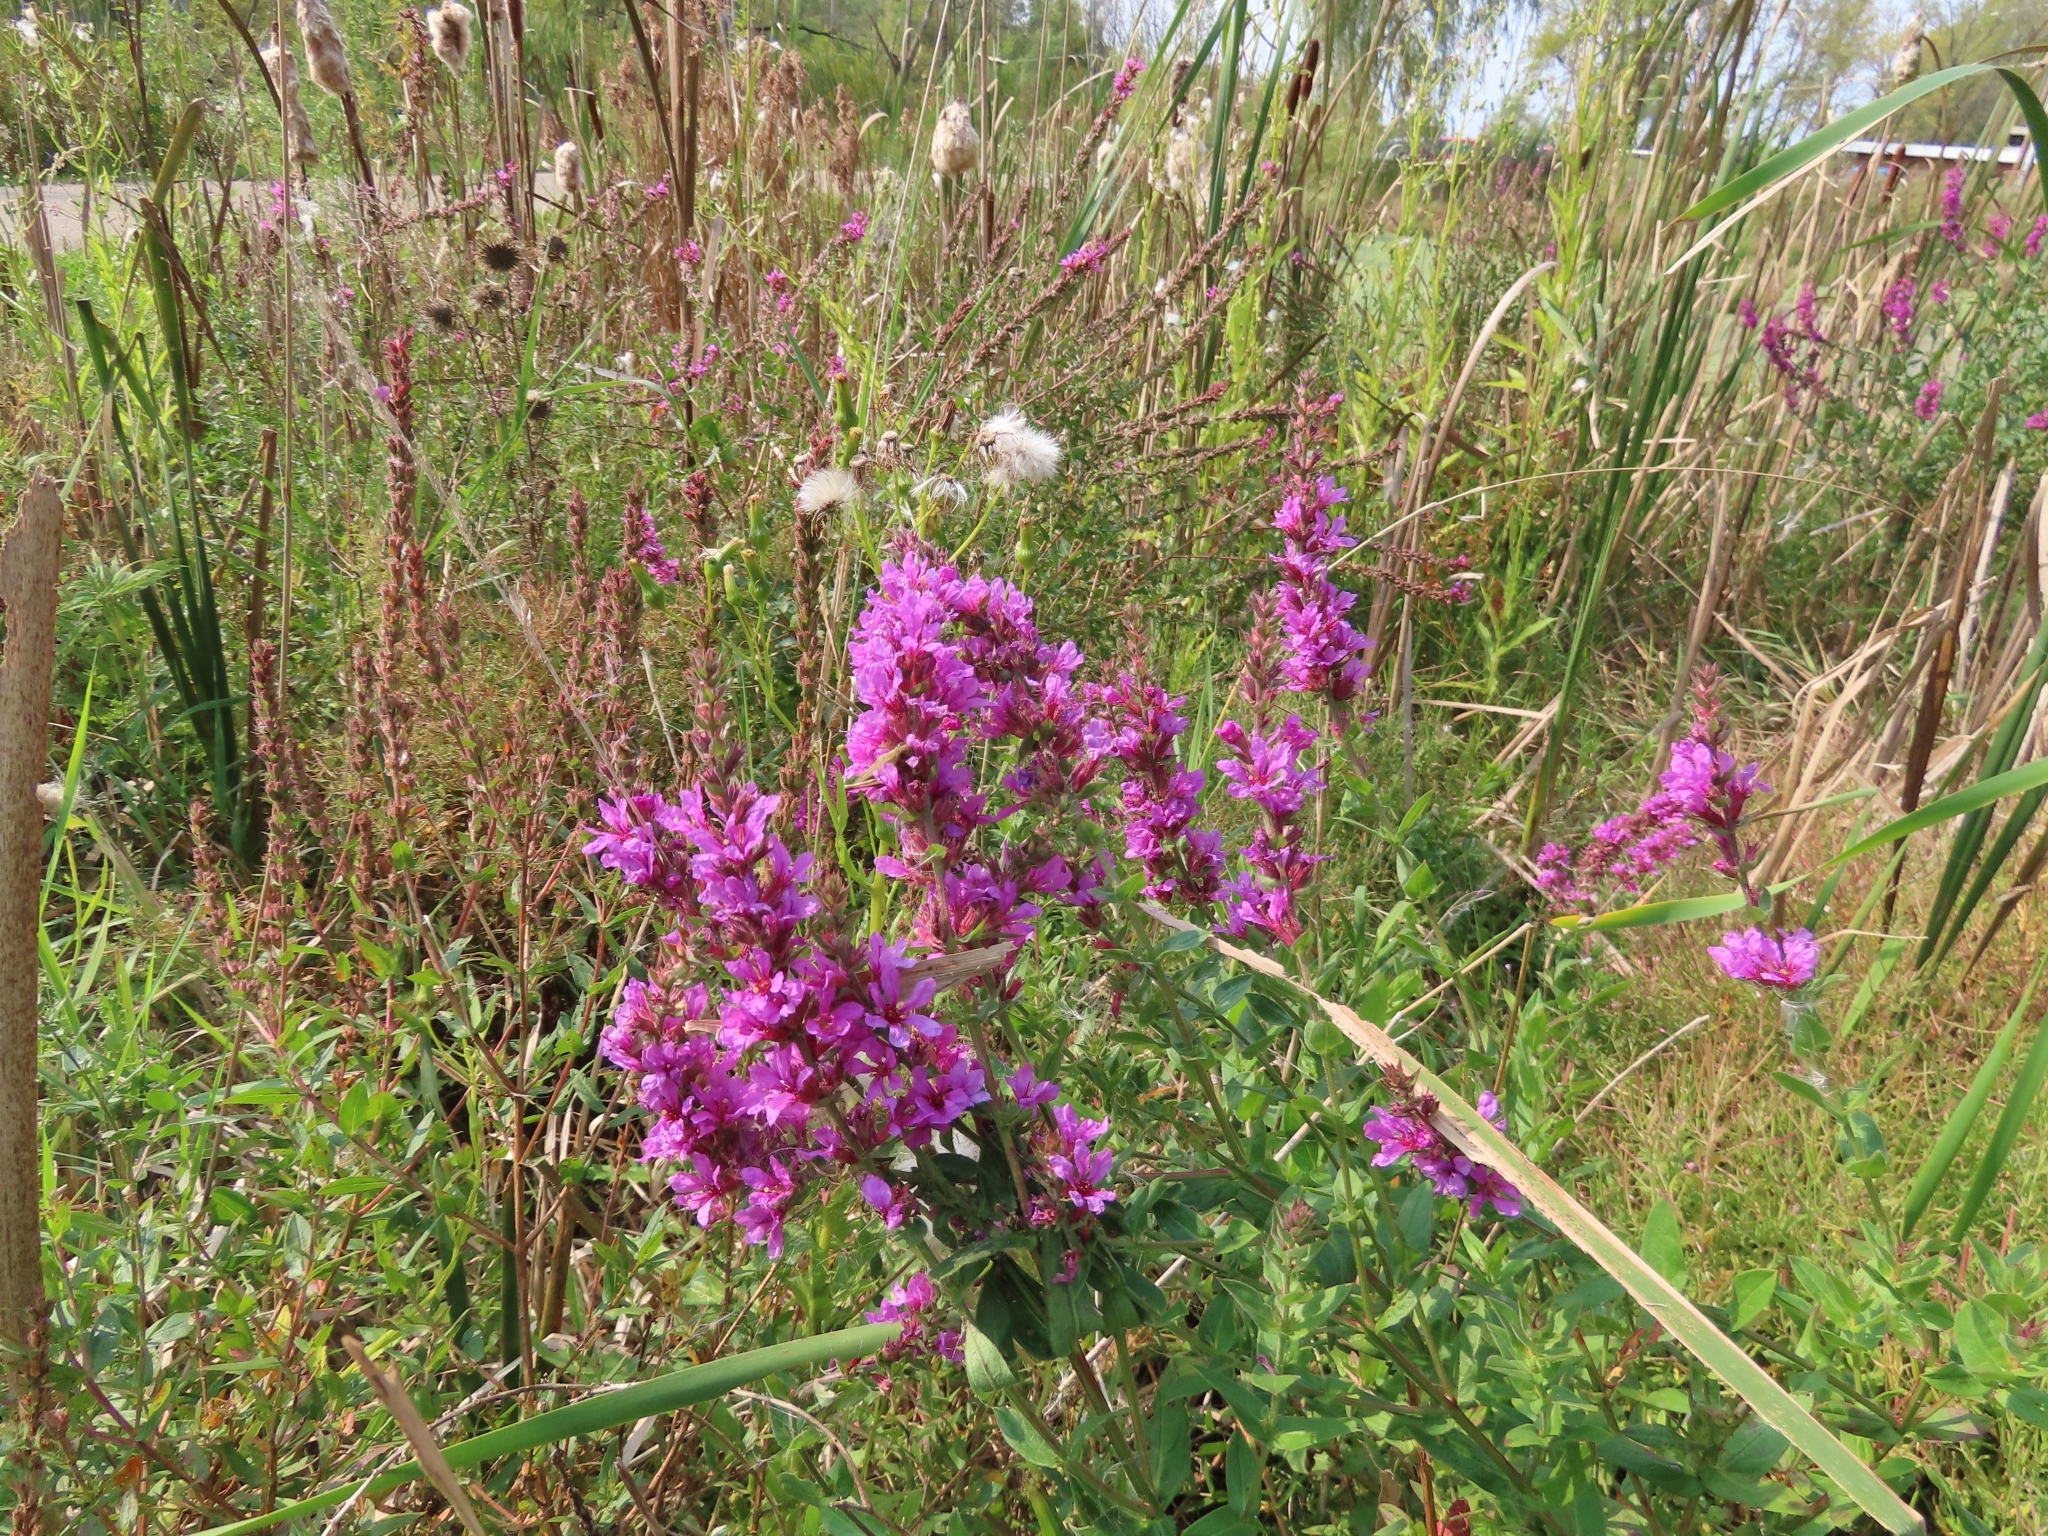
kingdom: Plantae
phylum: Tracheophyta
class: Magnoliopsida
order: Myrtales
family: Lythraceae
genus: Lythrum
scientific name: Lythrum salicaria
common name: Purple loosestrife
